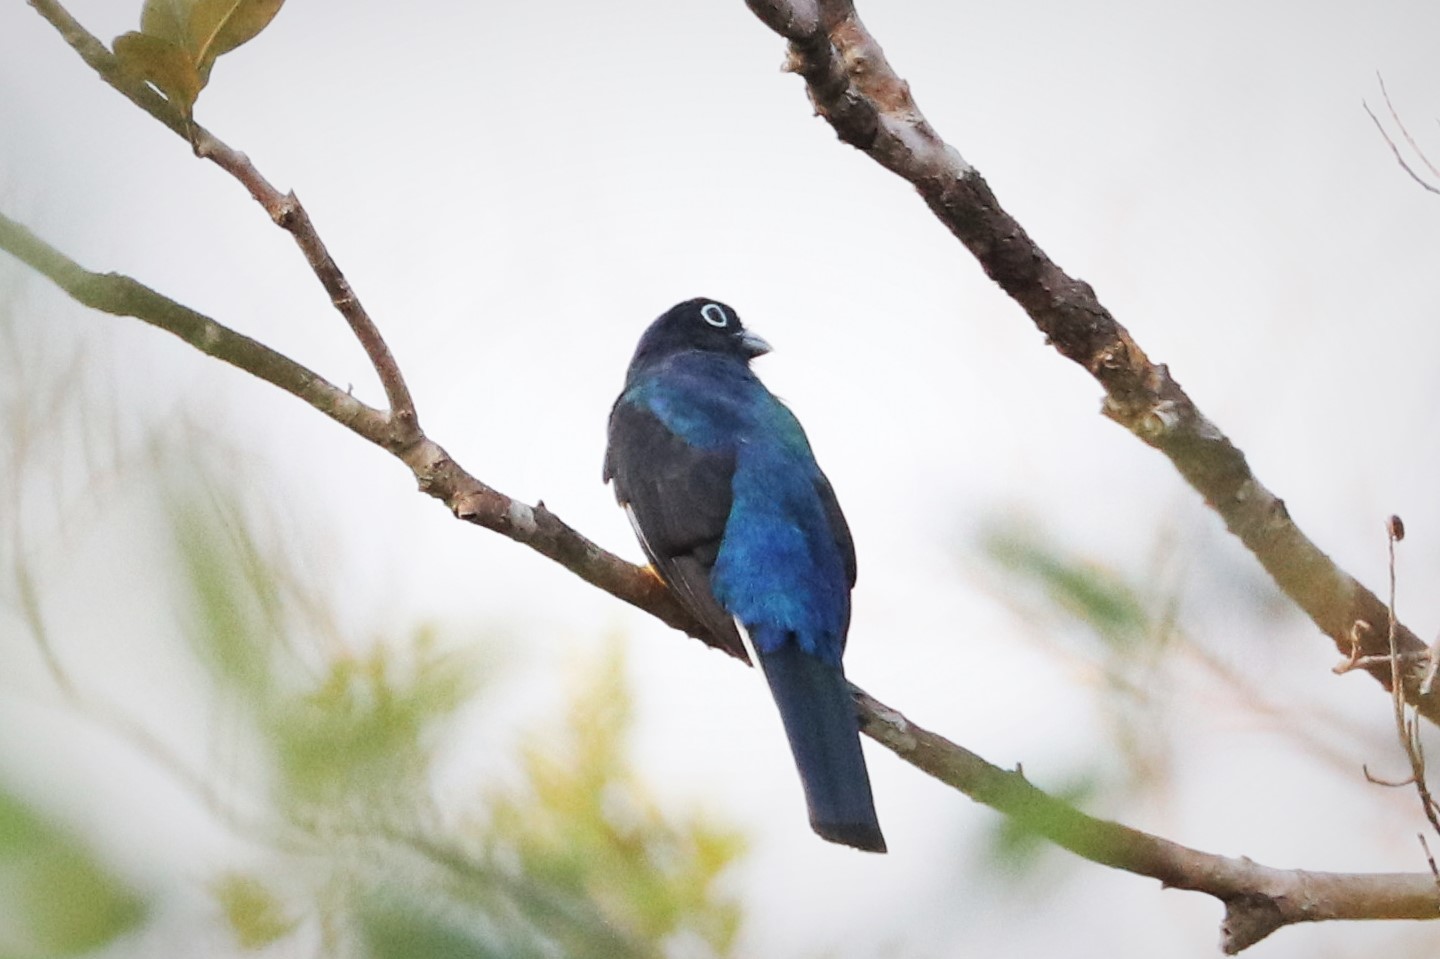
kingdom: Animalia
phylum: Chordata
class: Aves
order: Trogoniformes
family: Trogonidae
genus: Trogon
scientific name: Trogon viridis
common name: Green-backed trogon
